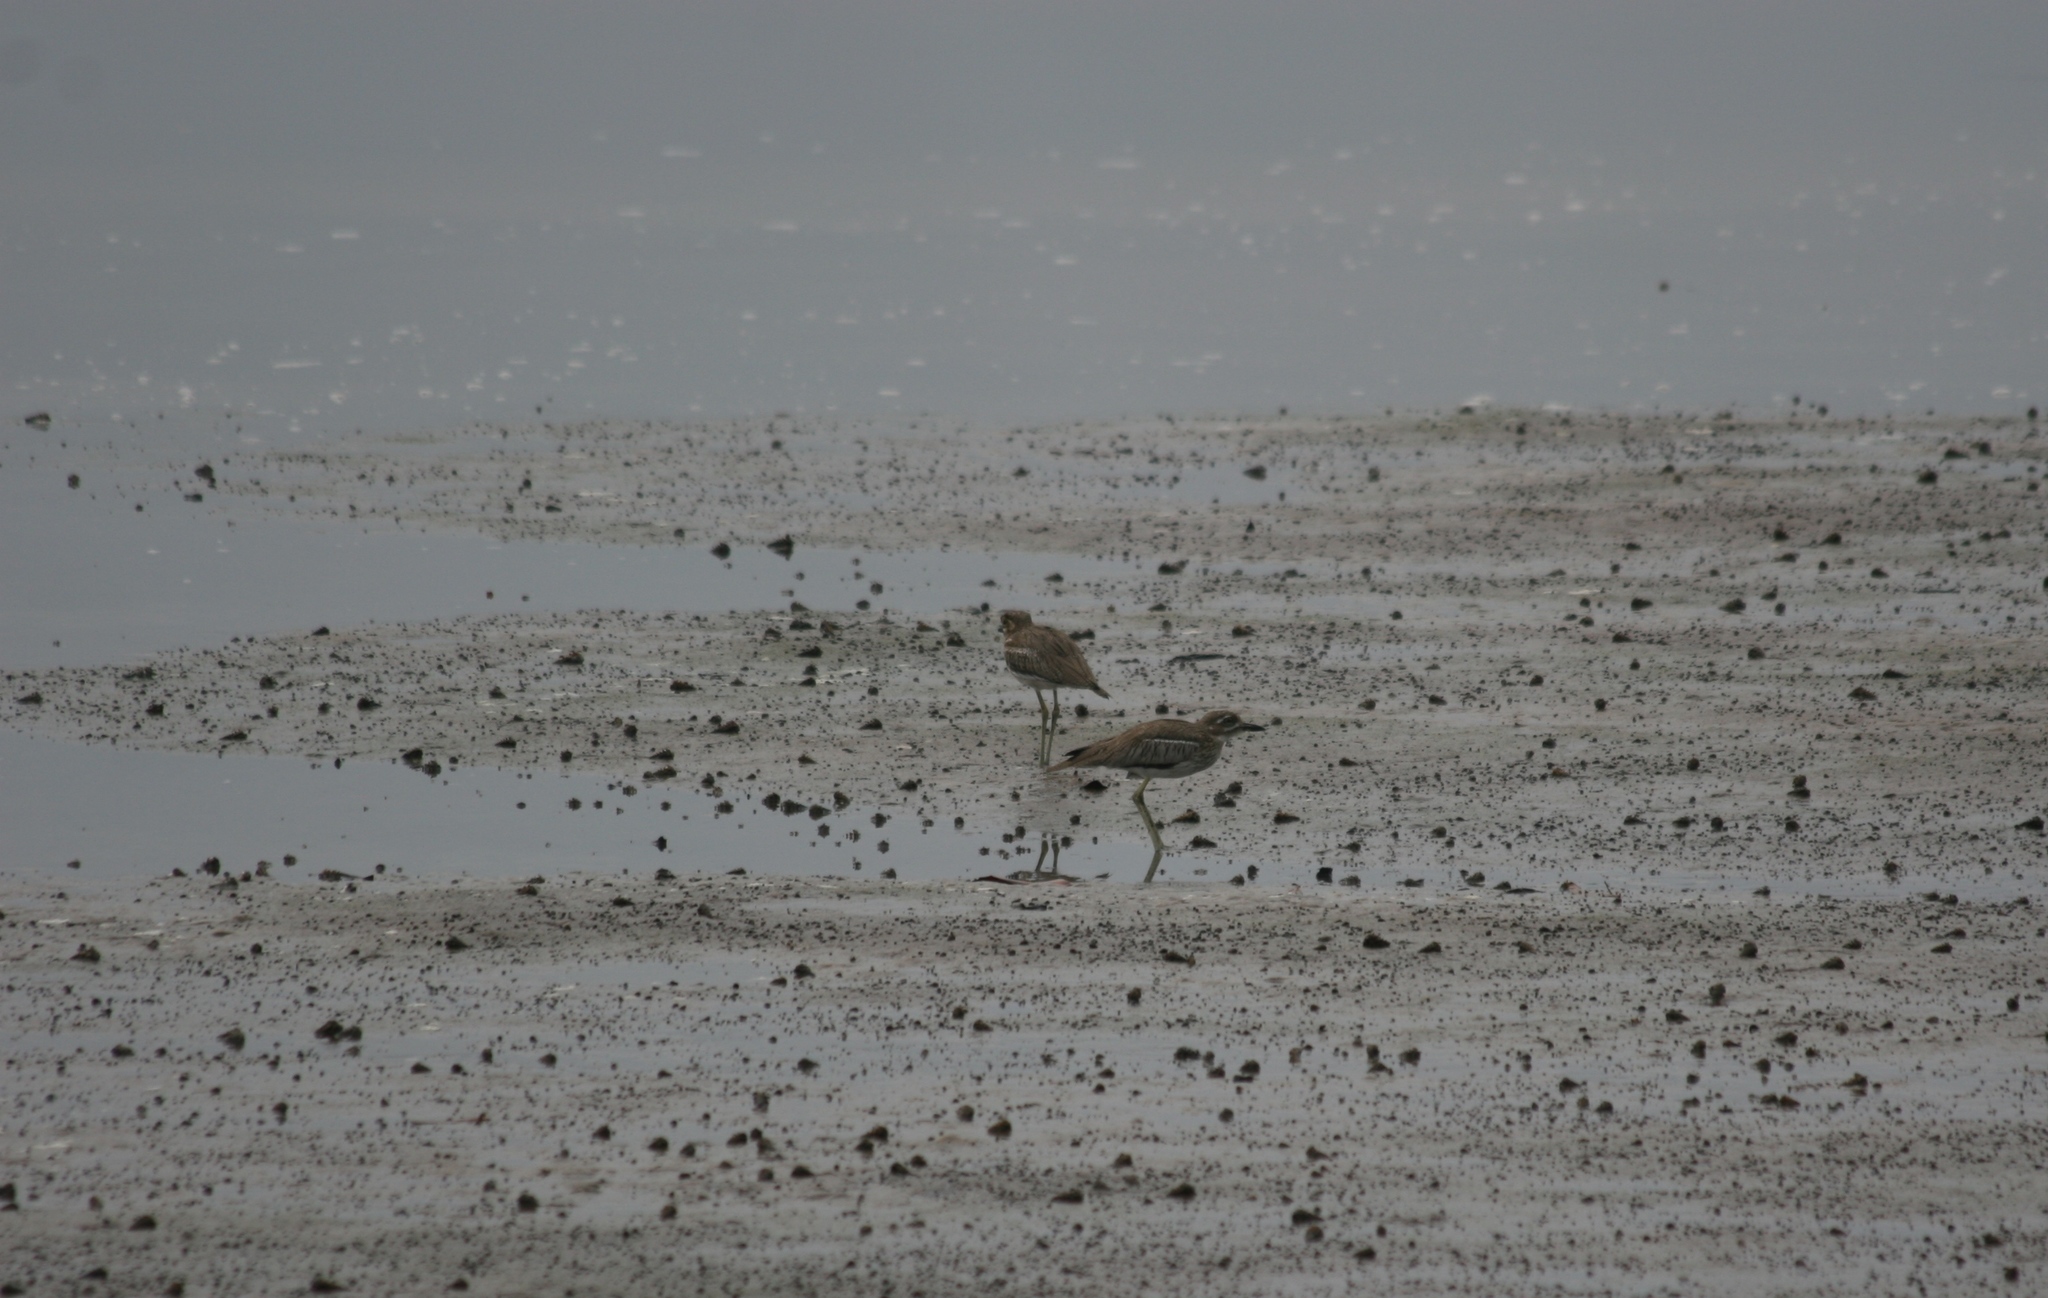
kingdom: Animalia
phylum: Chordata
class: Aves
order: Charadriiformes
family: Burhinidae
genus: Burhinus
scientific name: Burhinus vermiculatus
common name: Water thick-knee
